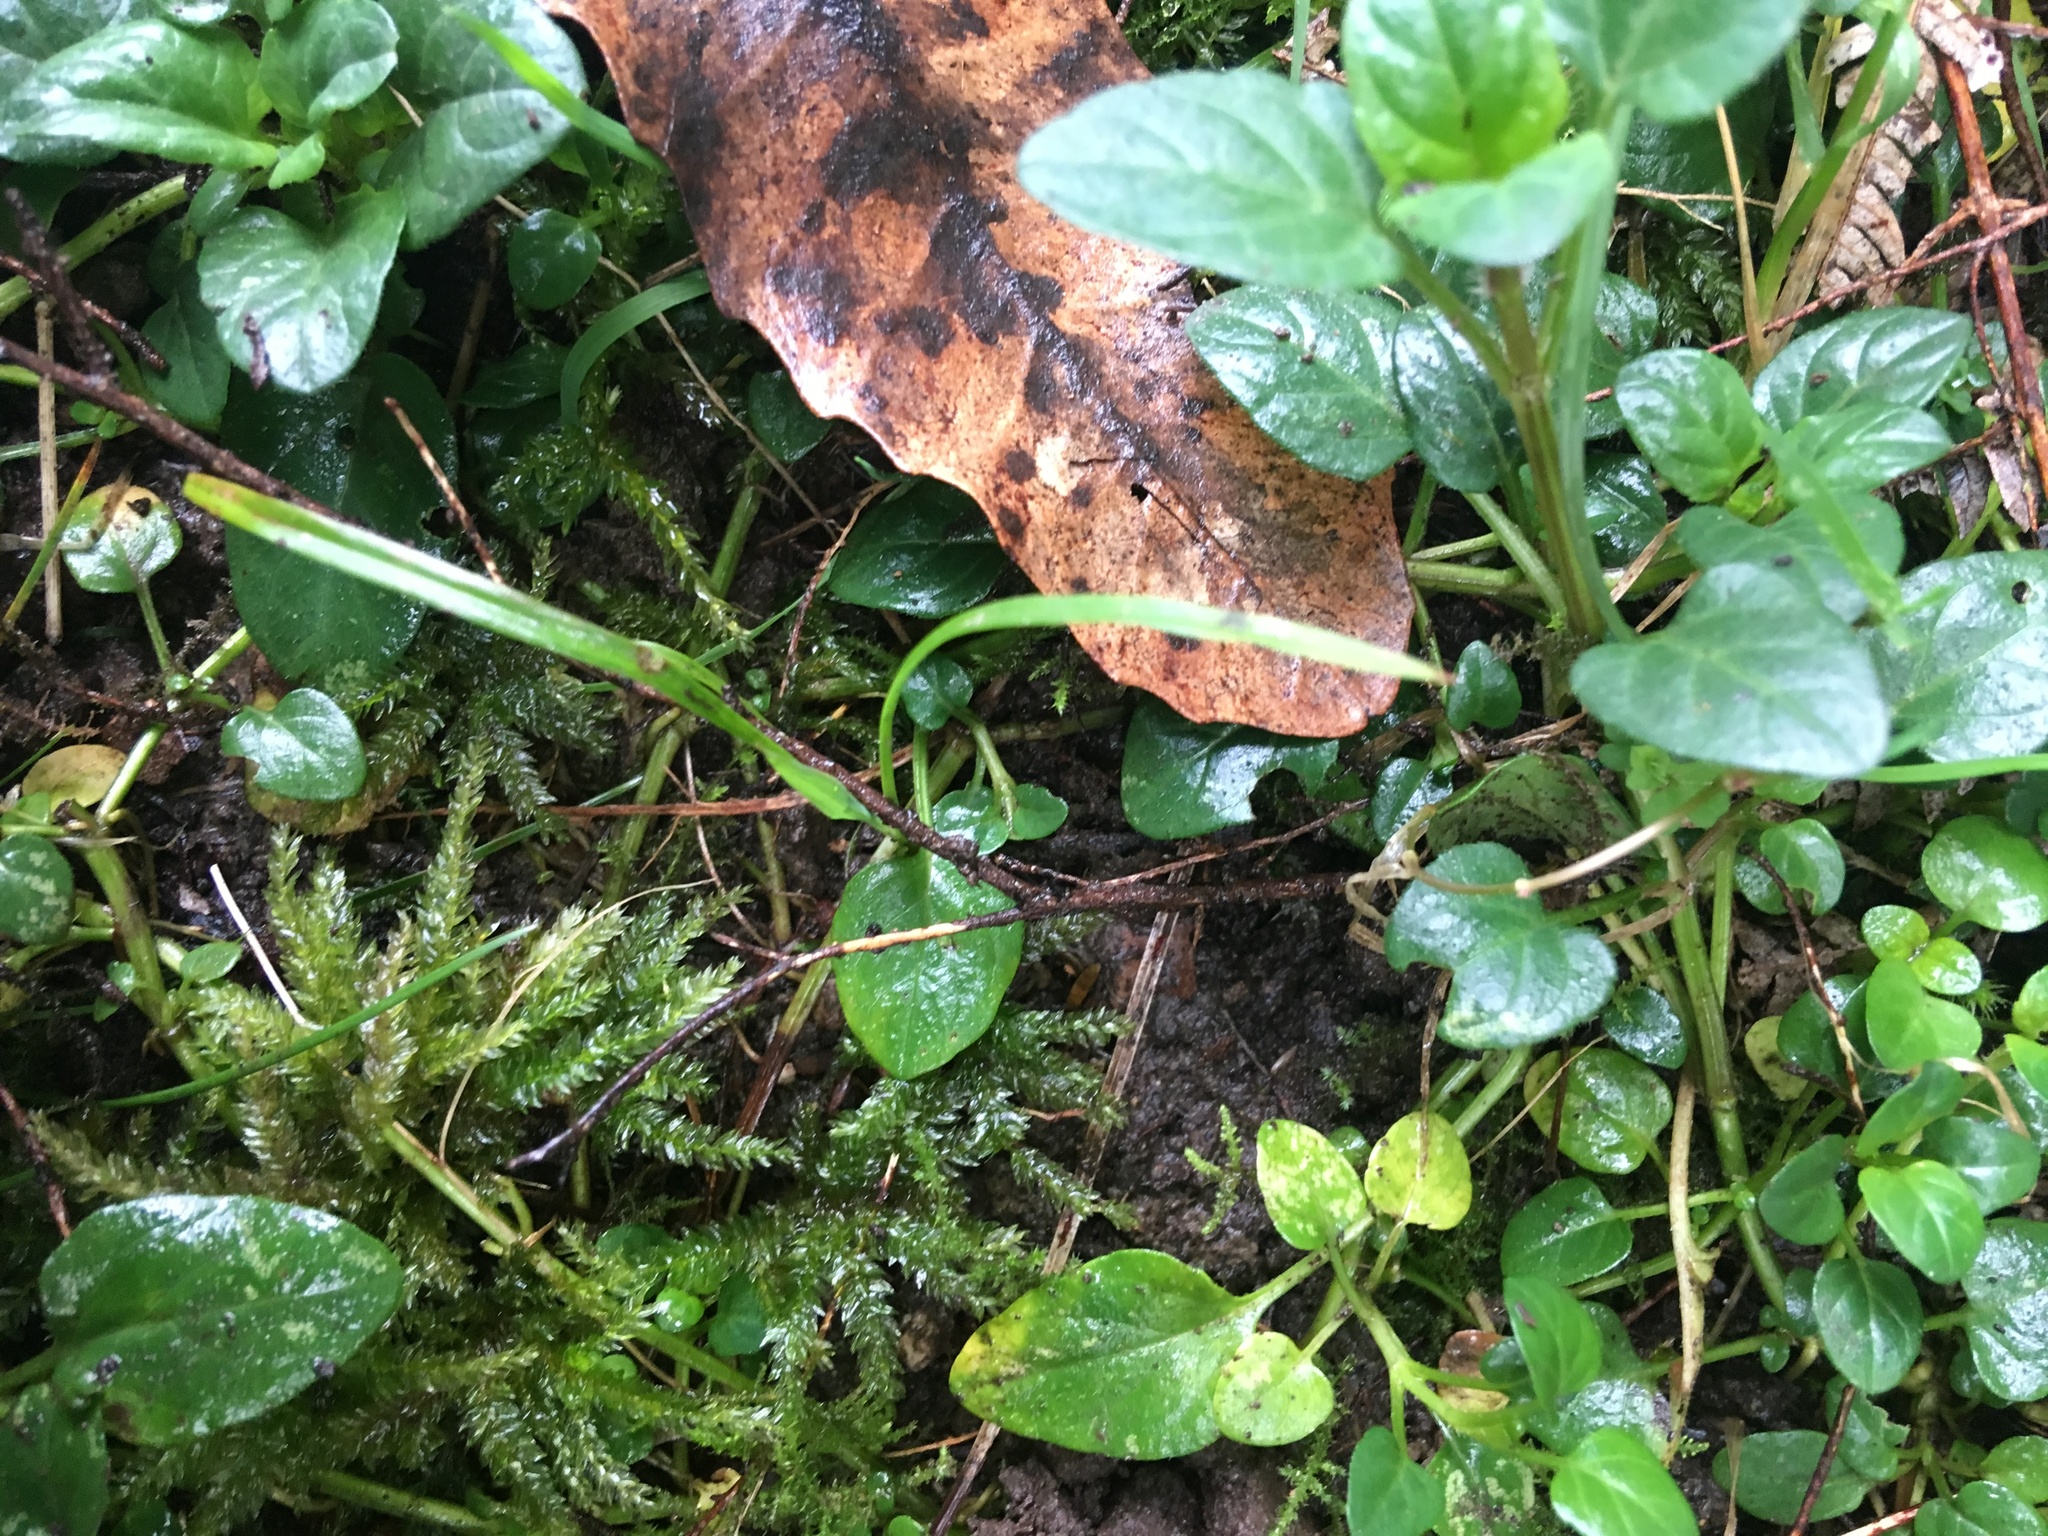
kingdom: Plantae
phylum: Tracheophyta
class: Magnoliopsida
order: Lamiales
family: Lamiaceae
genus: Prunella
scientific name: Prunella vulgaris
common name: Heal-all
